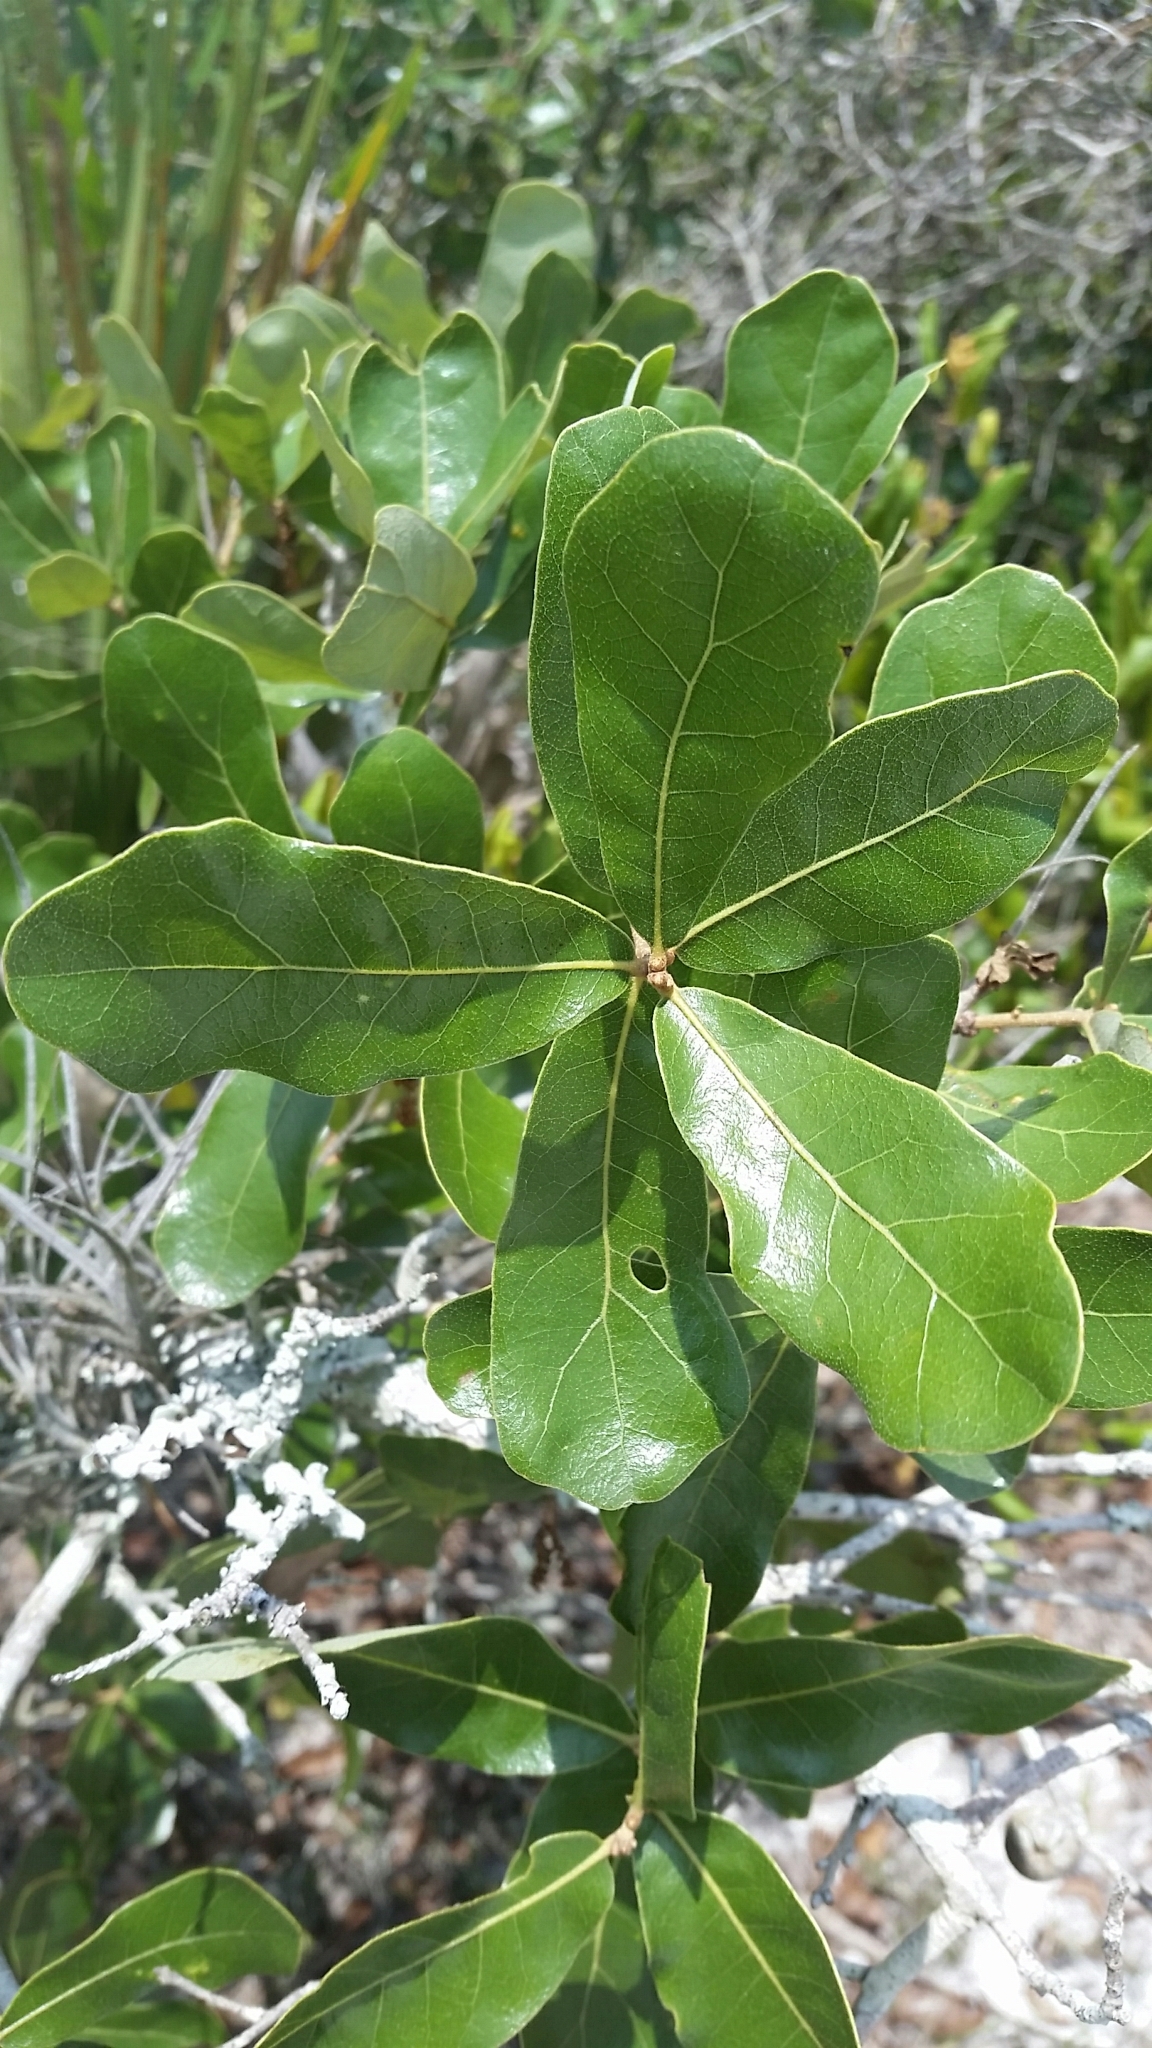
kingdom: Plantae
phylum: Tracheophyta
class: Magnoliopsida
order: Fagales
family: Fagaceae
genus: Quercus
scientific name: Quercus chapmanii
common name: Chapman oak
